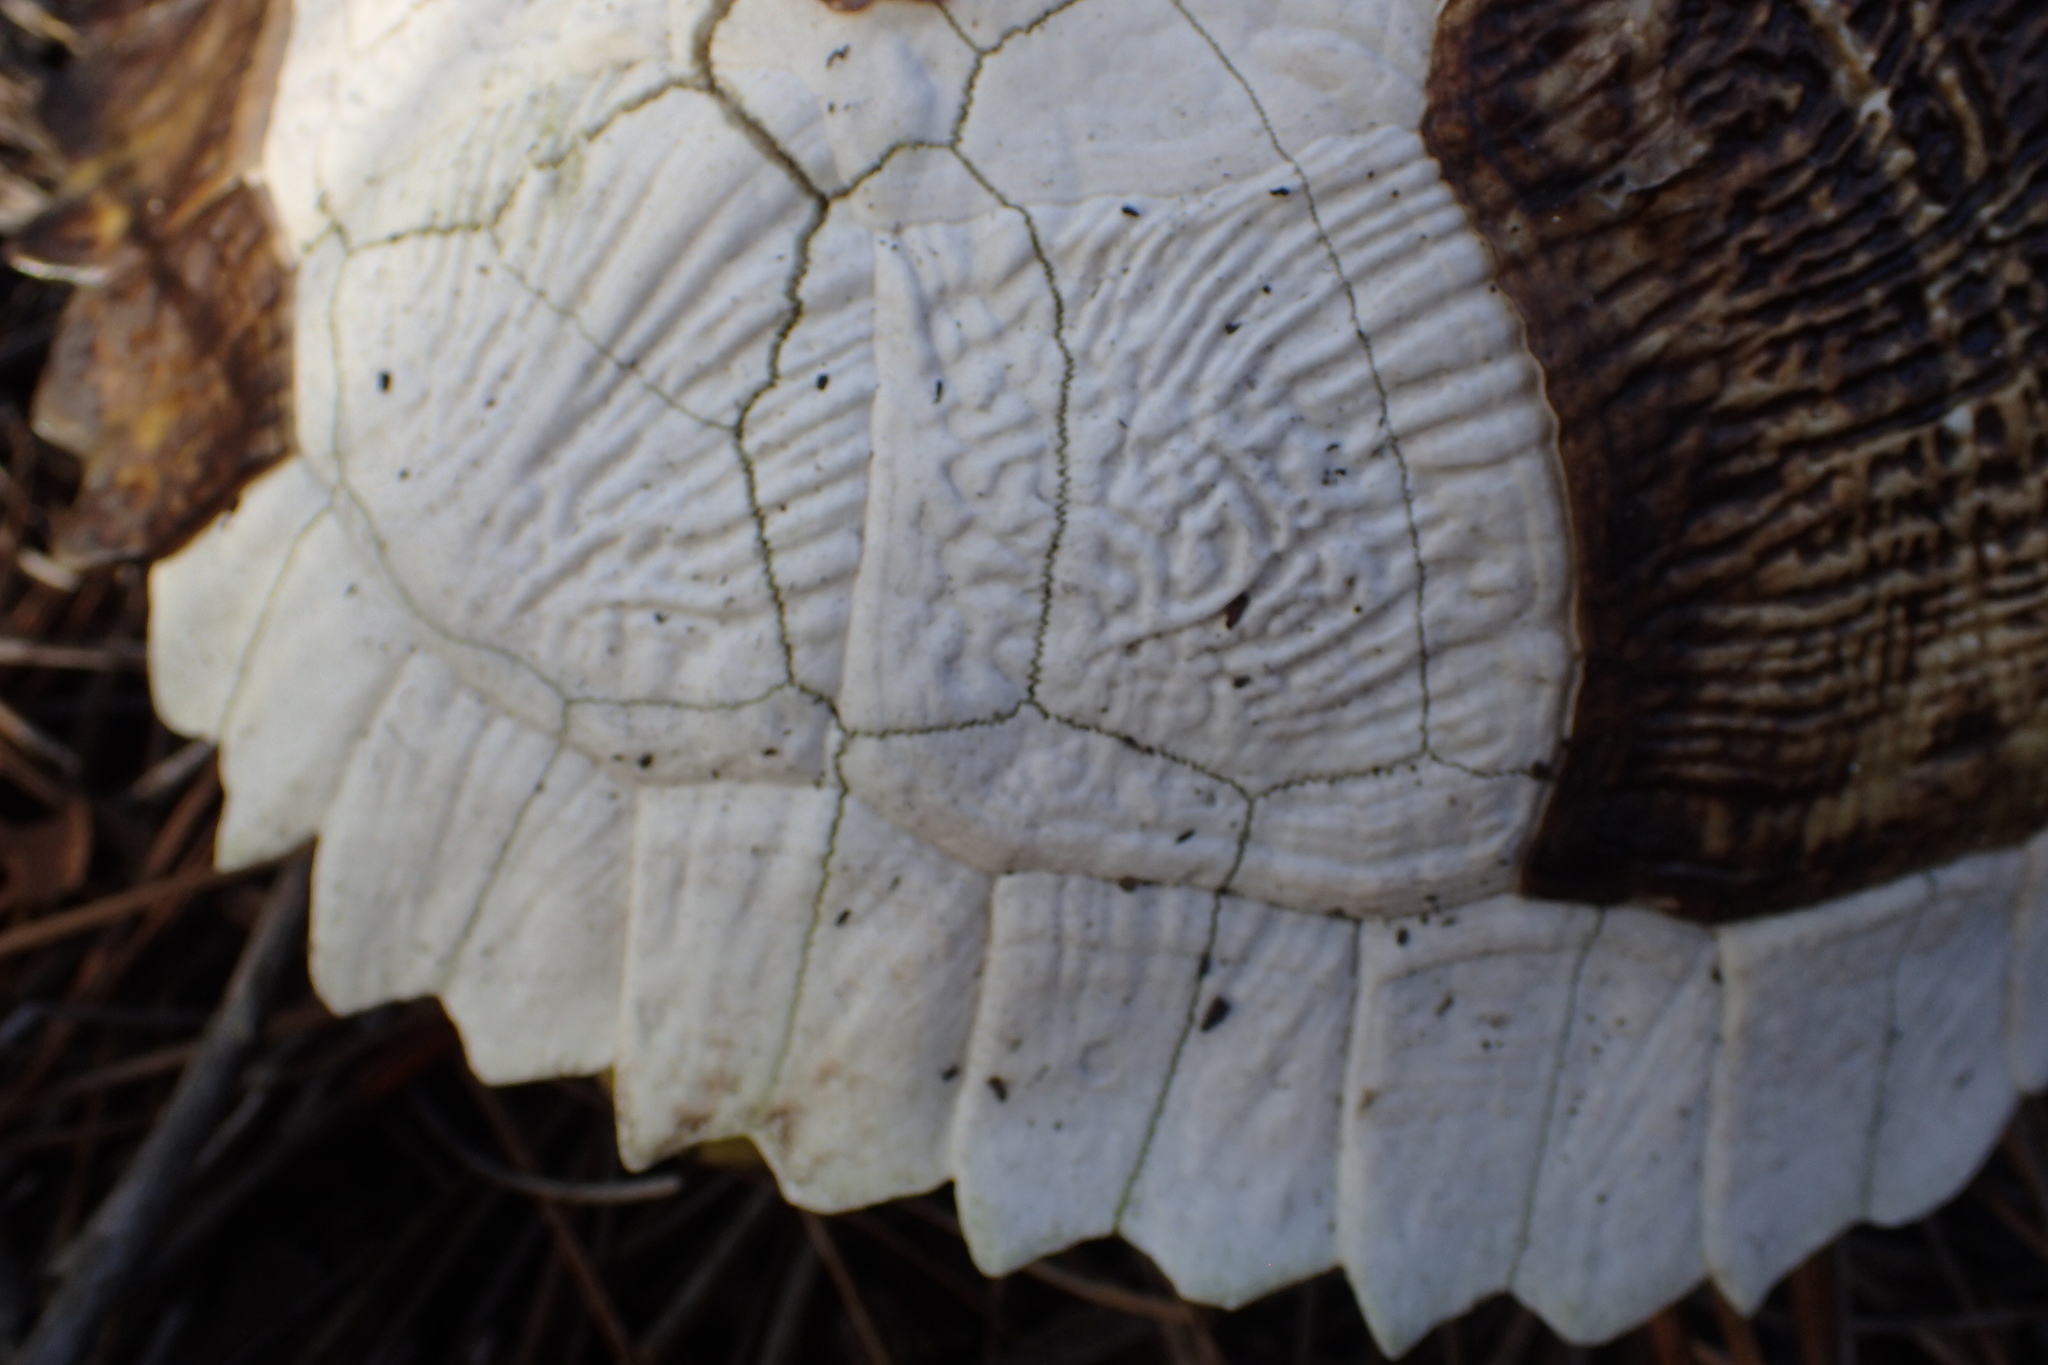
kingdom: Animalia
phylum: Chordata
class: Testudines
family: Emydidae
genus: Trachemys
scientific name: Trachemys scripta
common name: Slider
